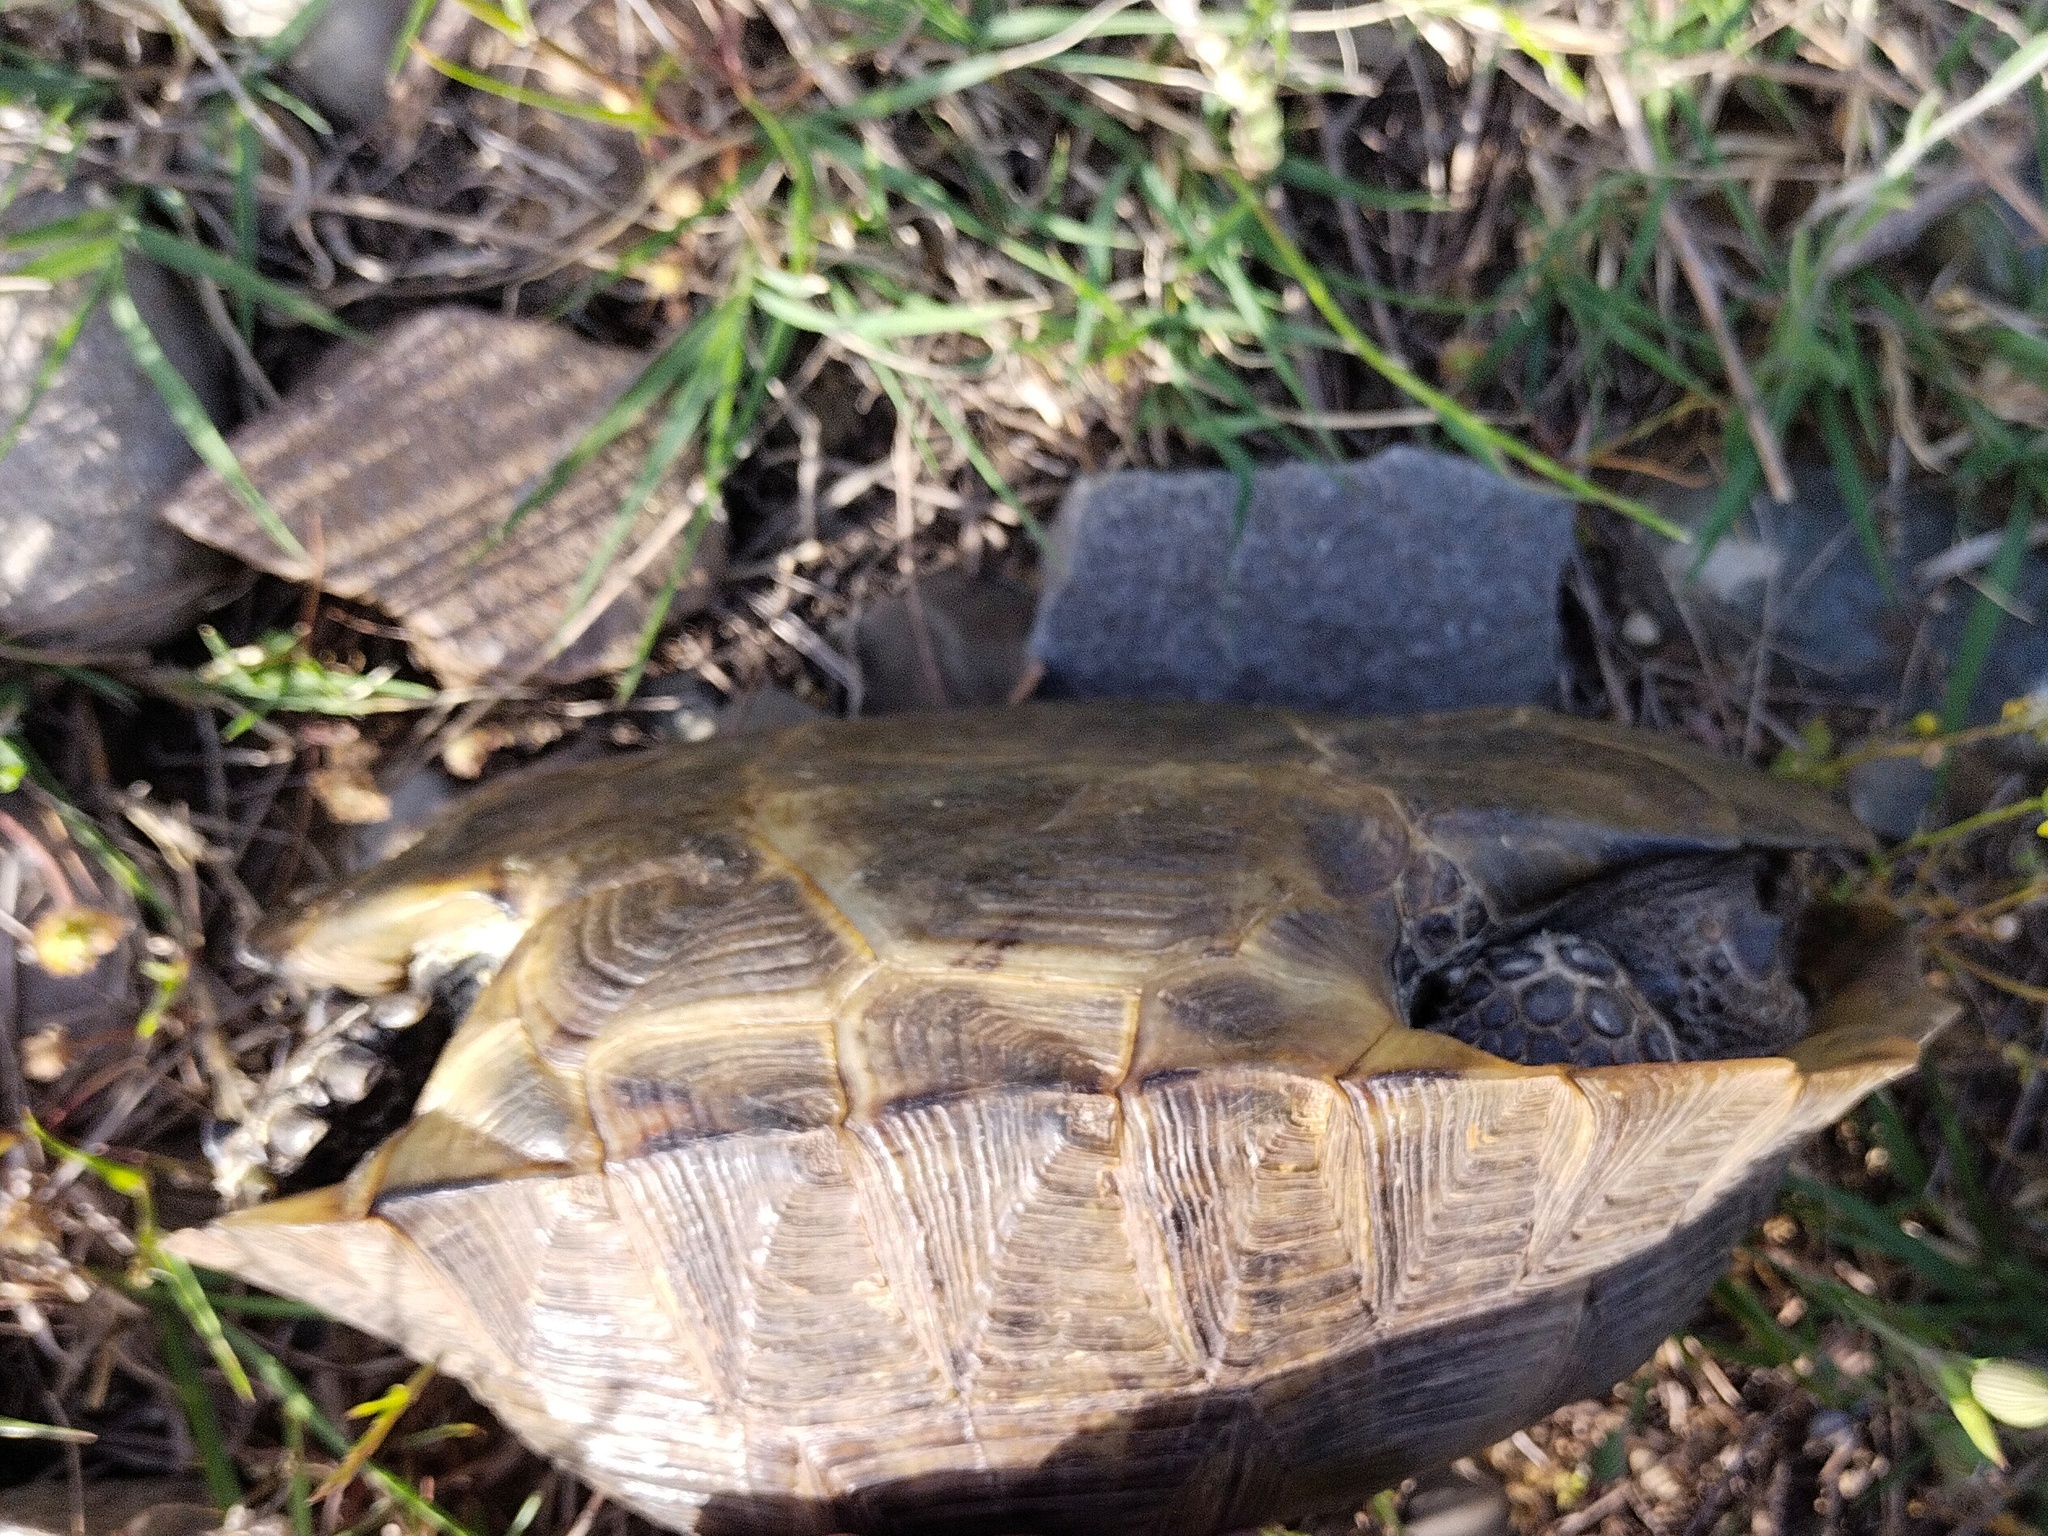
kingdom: Animalia
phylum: Chordata
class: Testudines
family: Testudinidae
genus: Testudo
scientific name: Testudo graeca
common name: Common tortoise
